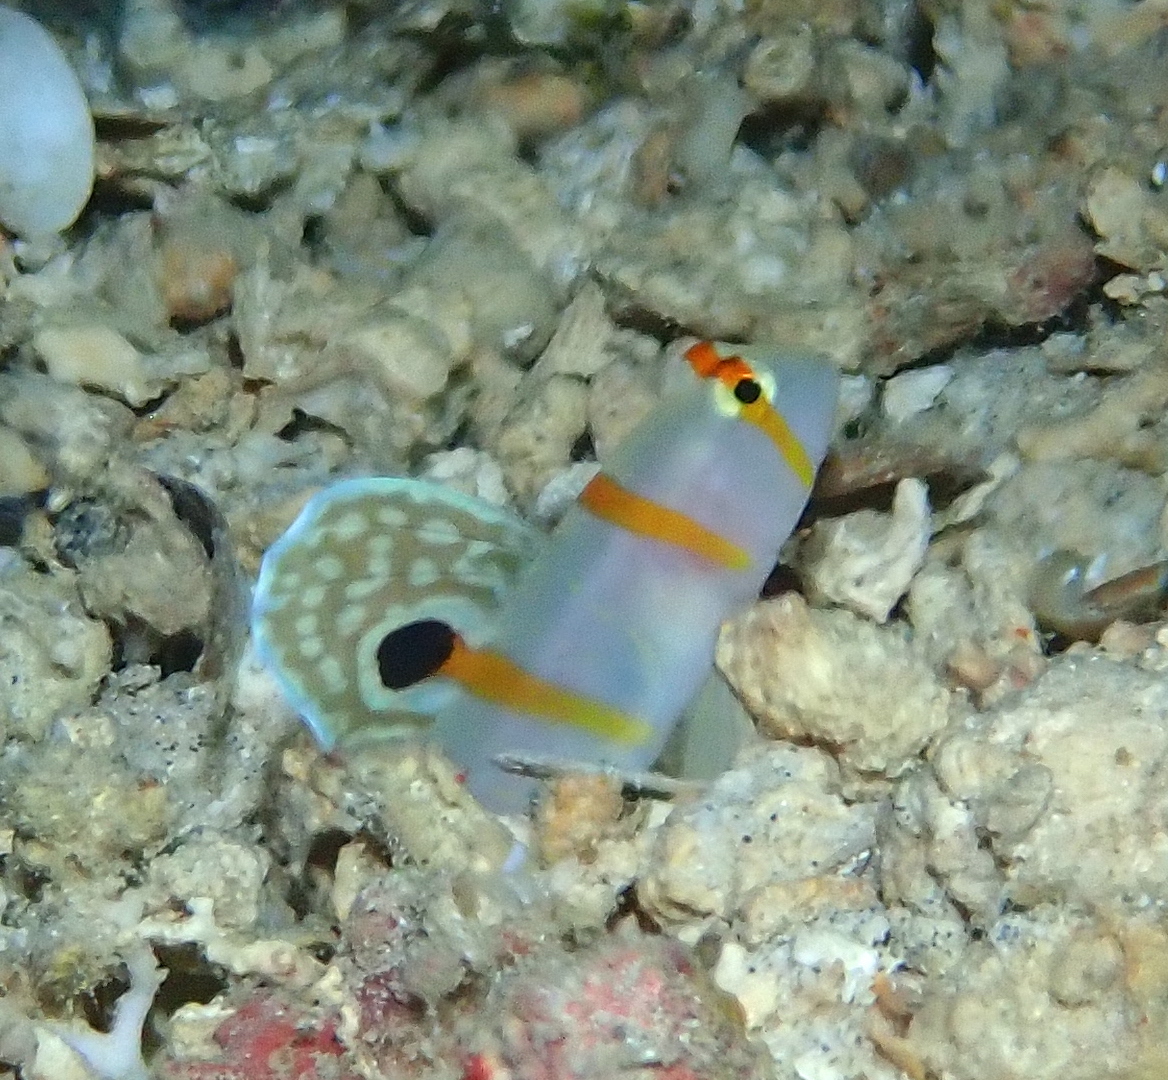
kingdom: Animalia
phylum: Chordata
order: Perciformes
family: Gobiidae
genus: Amblyeleotris
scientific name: Amblyeleotris randalli
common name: Gold-barred shrimp-goby
